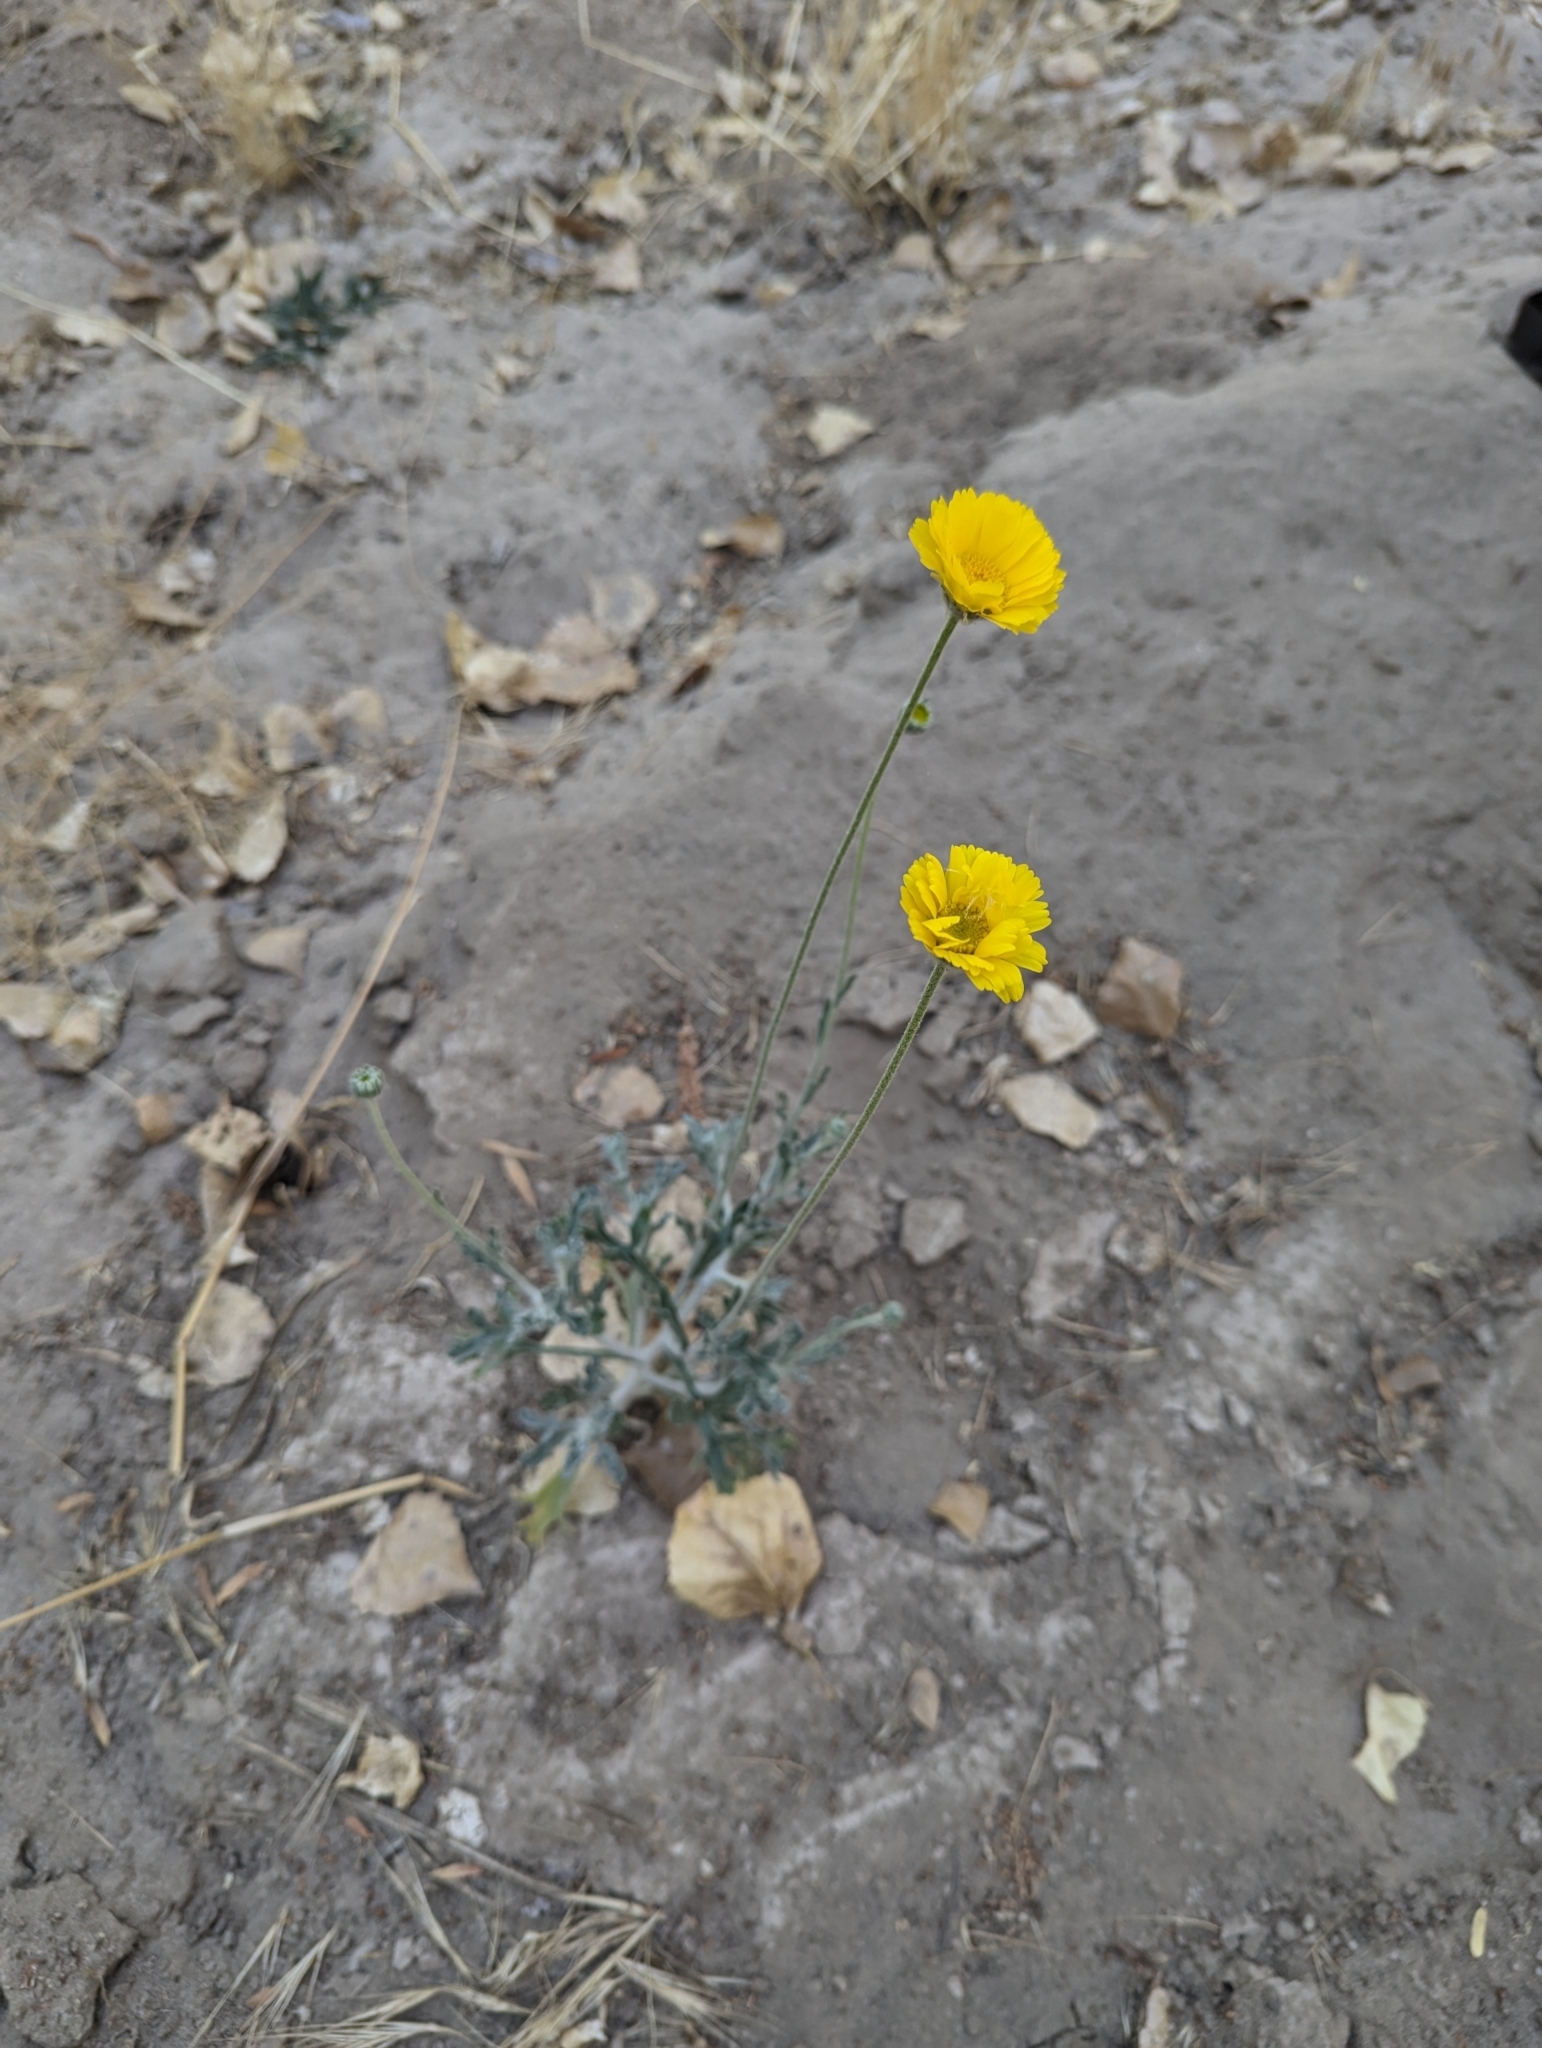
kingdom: Plantae
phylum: Tracheophyta
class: Magnoliopsida
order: Asterales
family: Asteraceae
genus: Baileya
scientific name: Baileya multiradiata
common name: Desert-marigold
